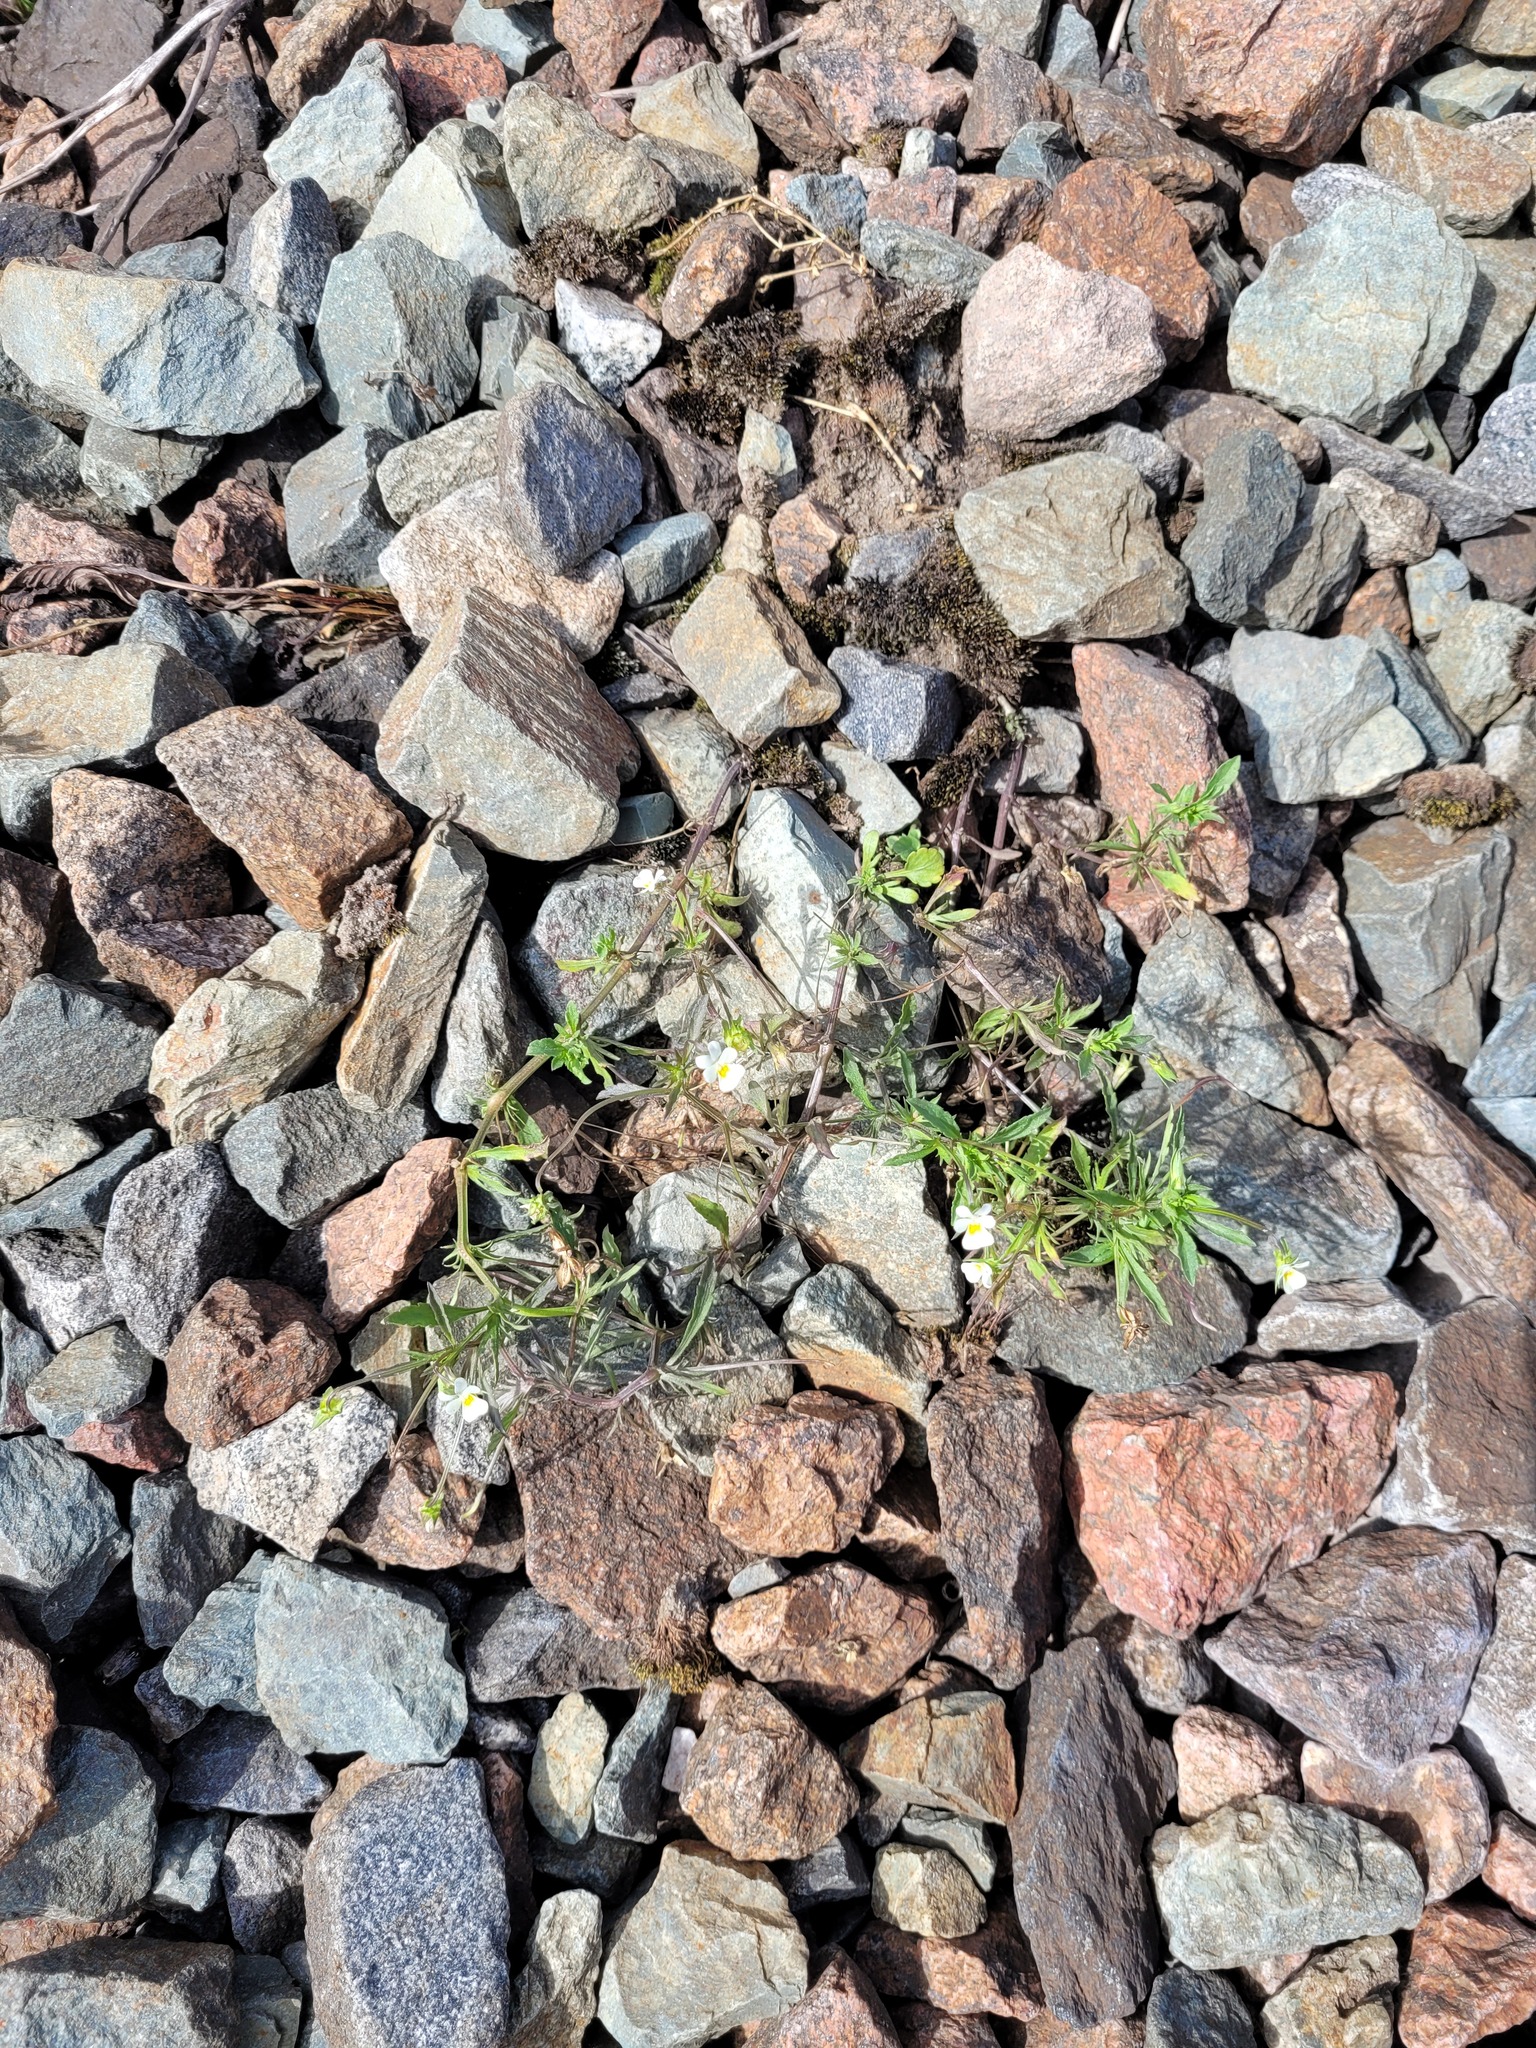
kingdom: Plantae
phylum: Tracheophyta
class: Magnoliopsida
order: Malpighiales
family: Violaceae
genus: Viola
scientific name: Viola arvensis
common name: Field pansy
